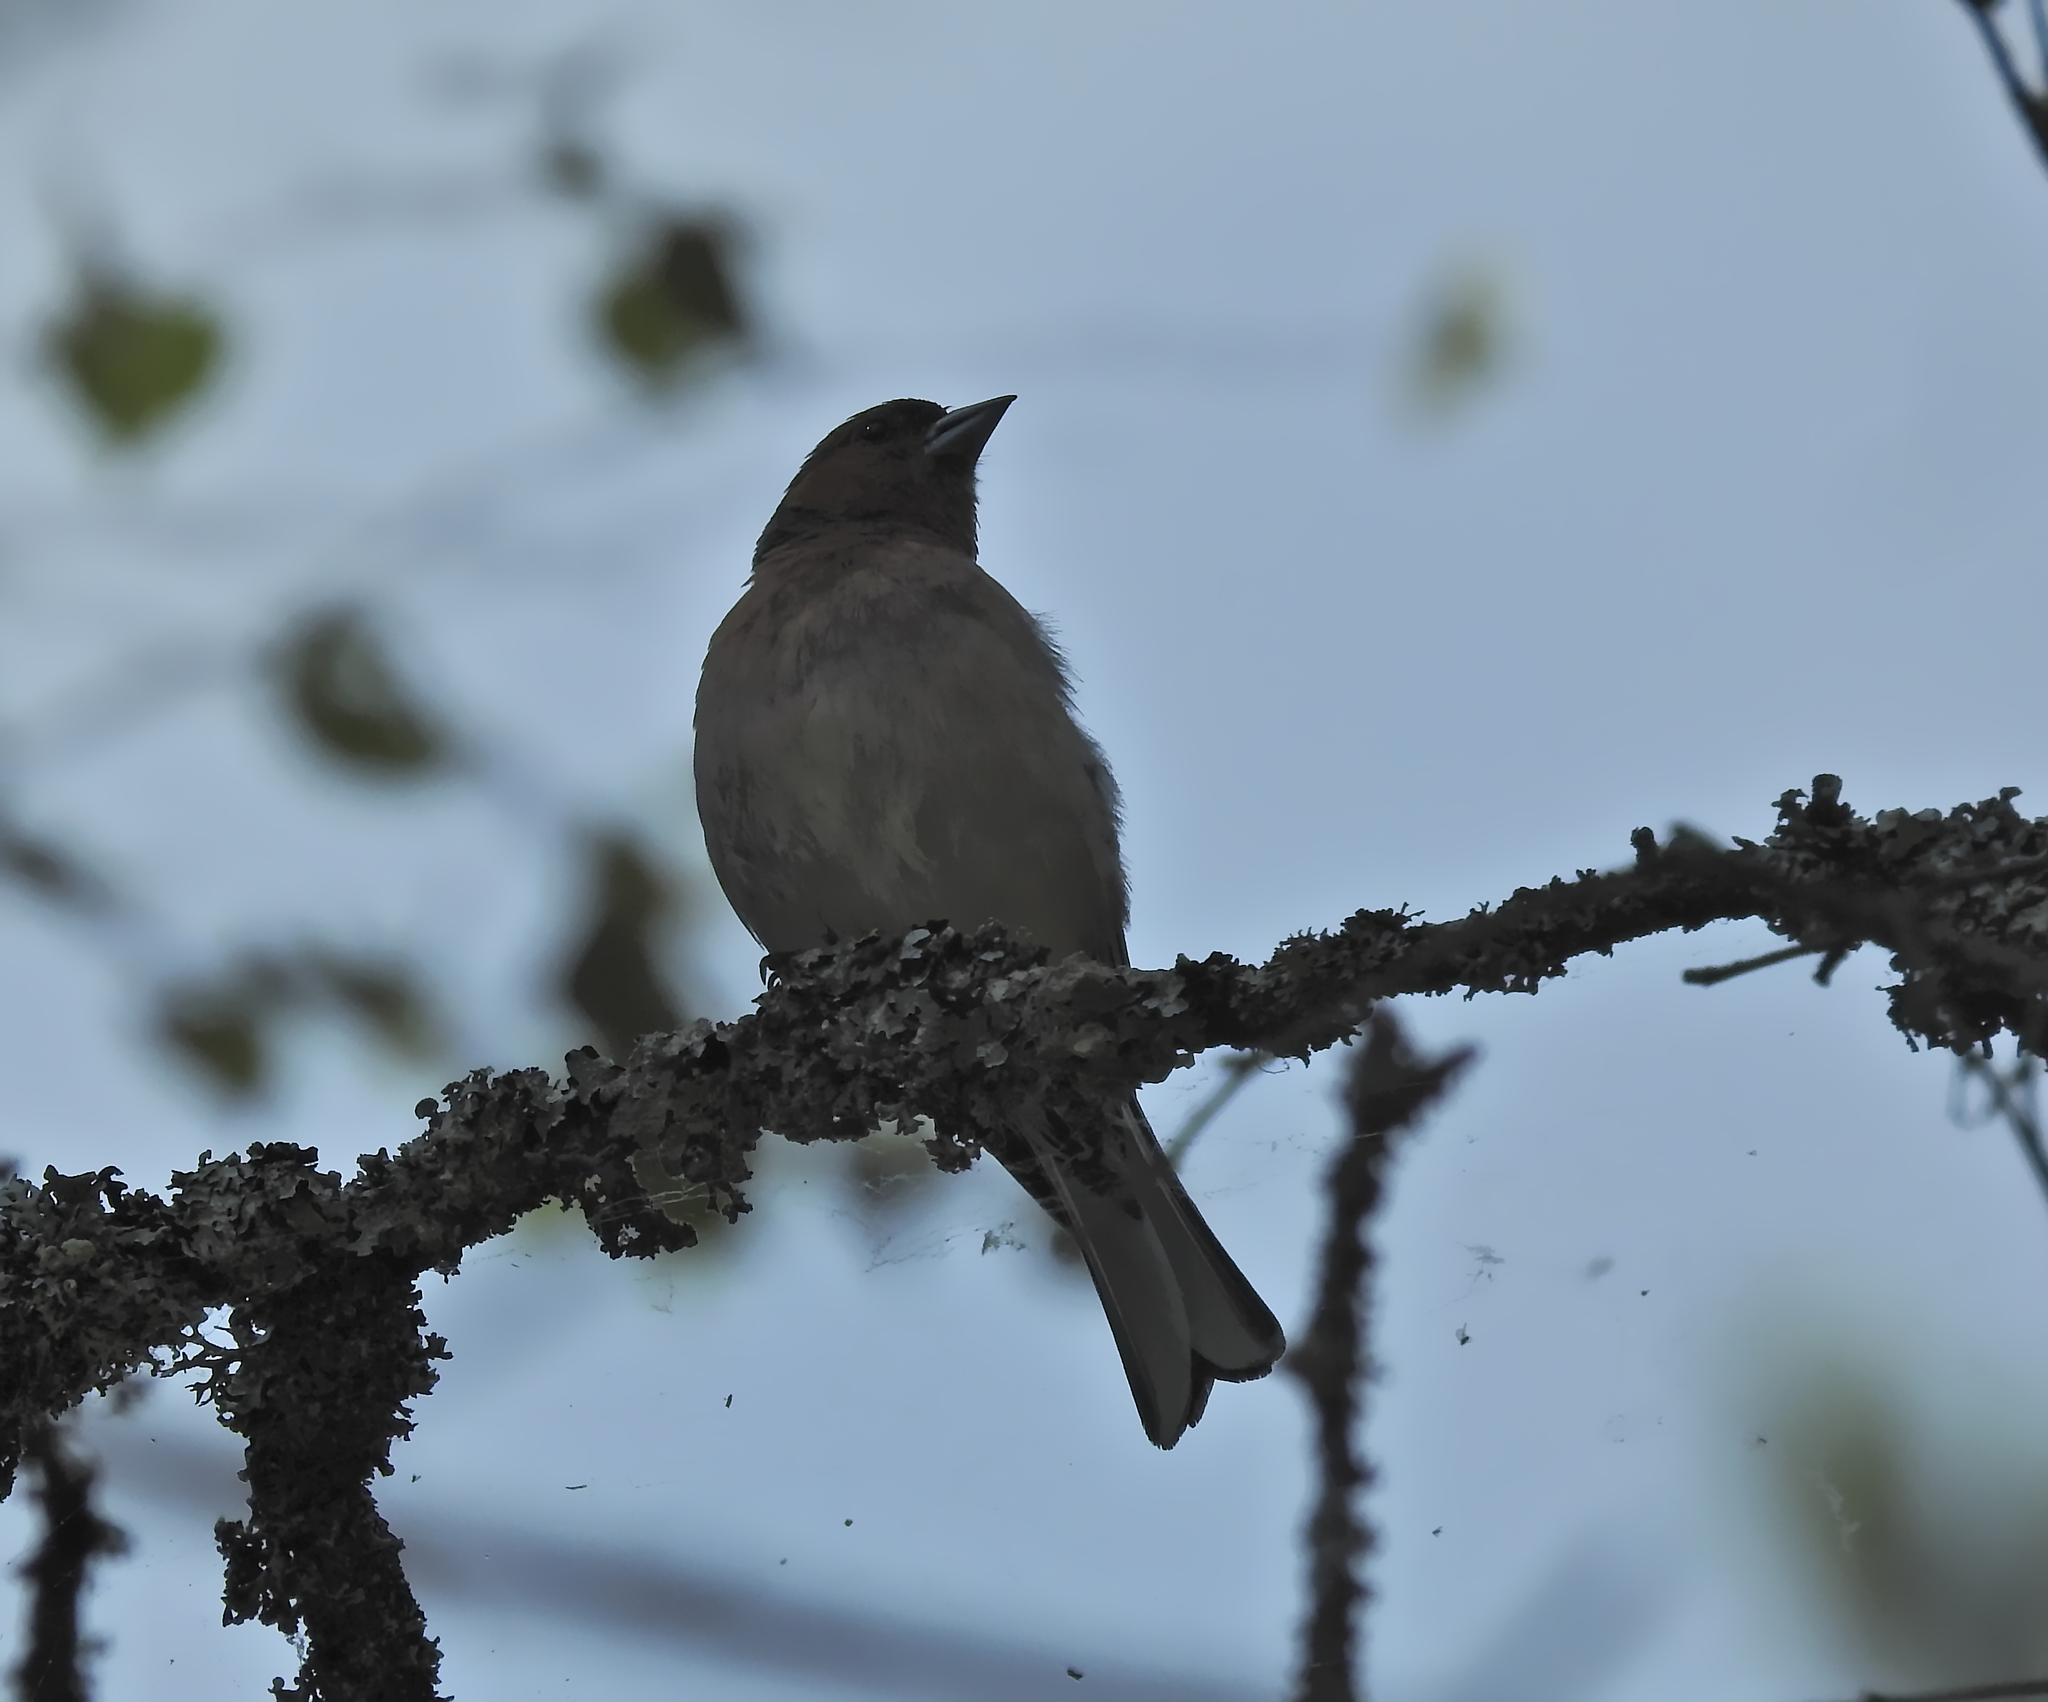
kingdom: Animalia
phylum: Chordata
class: Aves
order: Passeriformes
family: Fringillidae
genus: Fringilla
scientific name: Fringilla coelebs
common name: Common chaffinch
